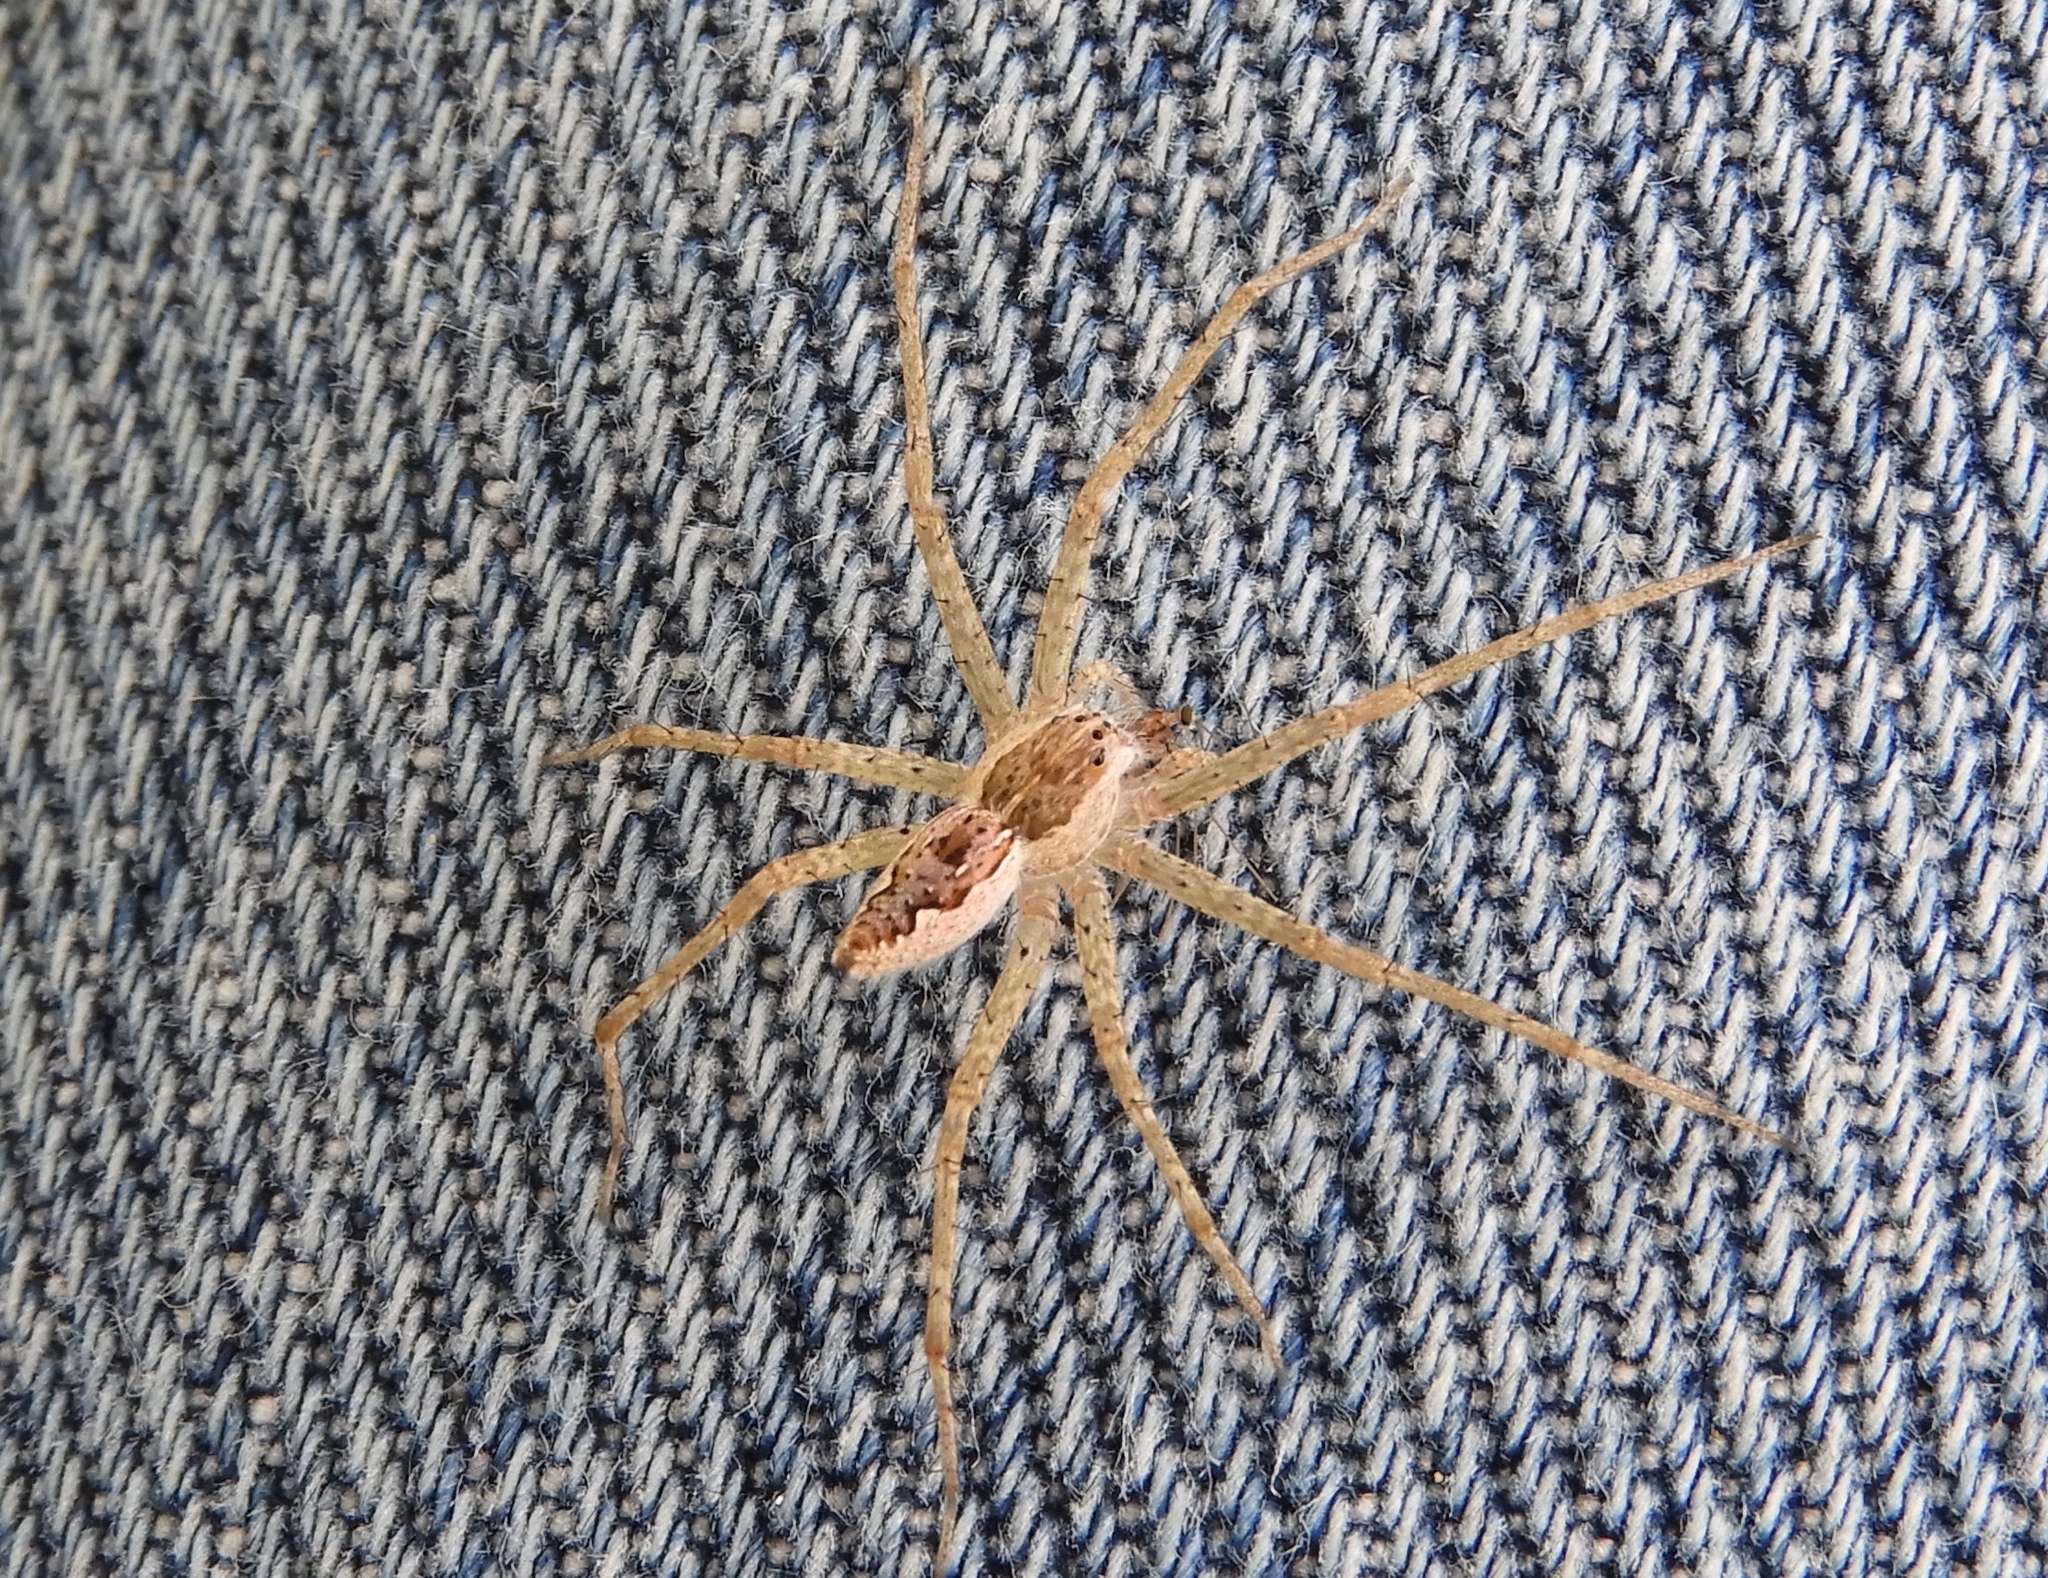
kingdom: Animalia
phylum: Arthropoda
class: Arachnida
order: Araneae
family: Pisauridae
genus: Tinus
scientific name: Tinus
